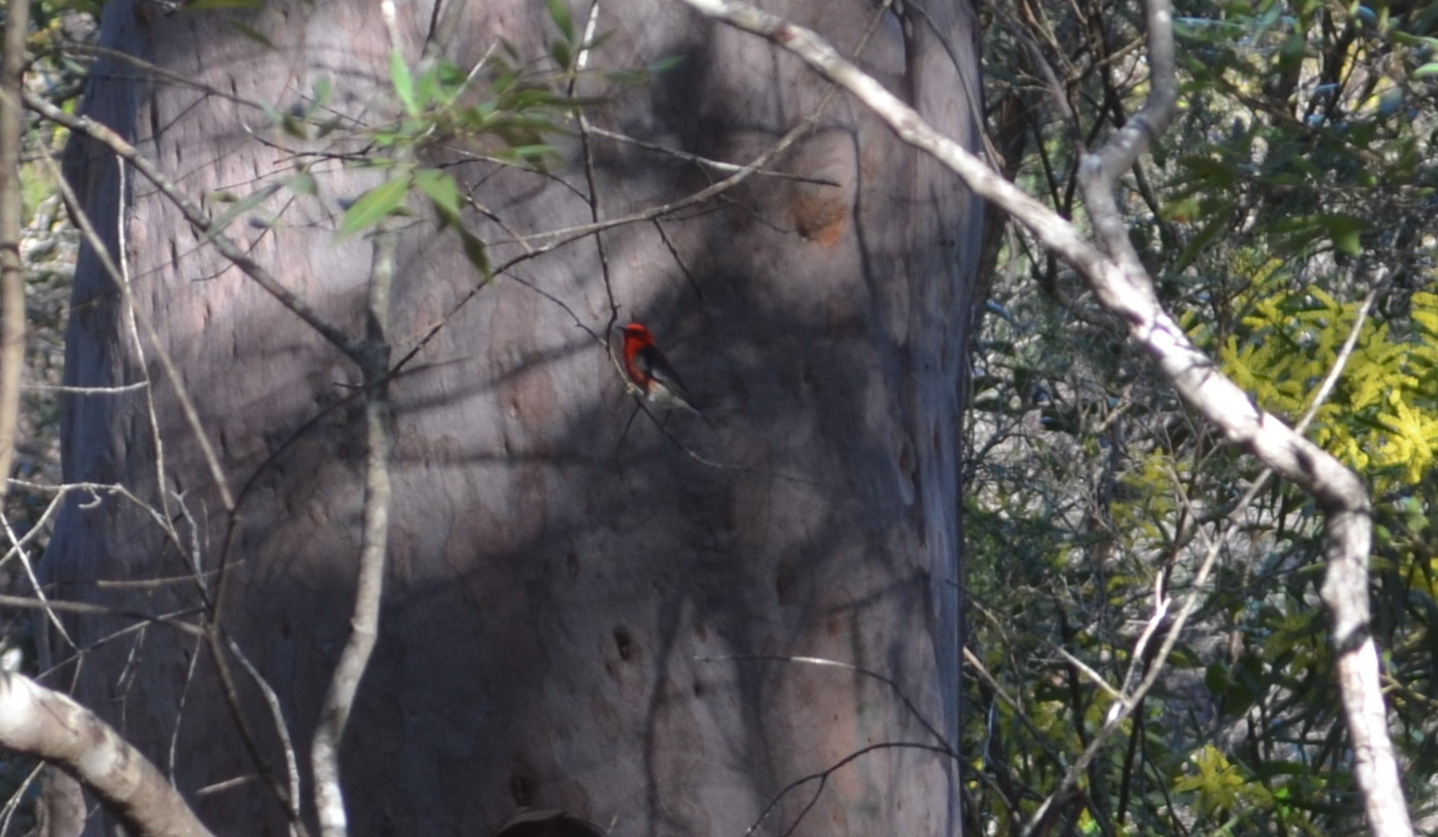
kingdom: Animalia
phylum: Chordata
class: Aves
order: Passeriformes
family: Meliphagidae
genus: Myzomela
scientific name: Myzomela sanguinolenta
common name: Scarlet myzomela
